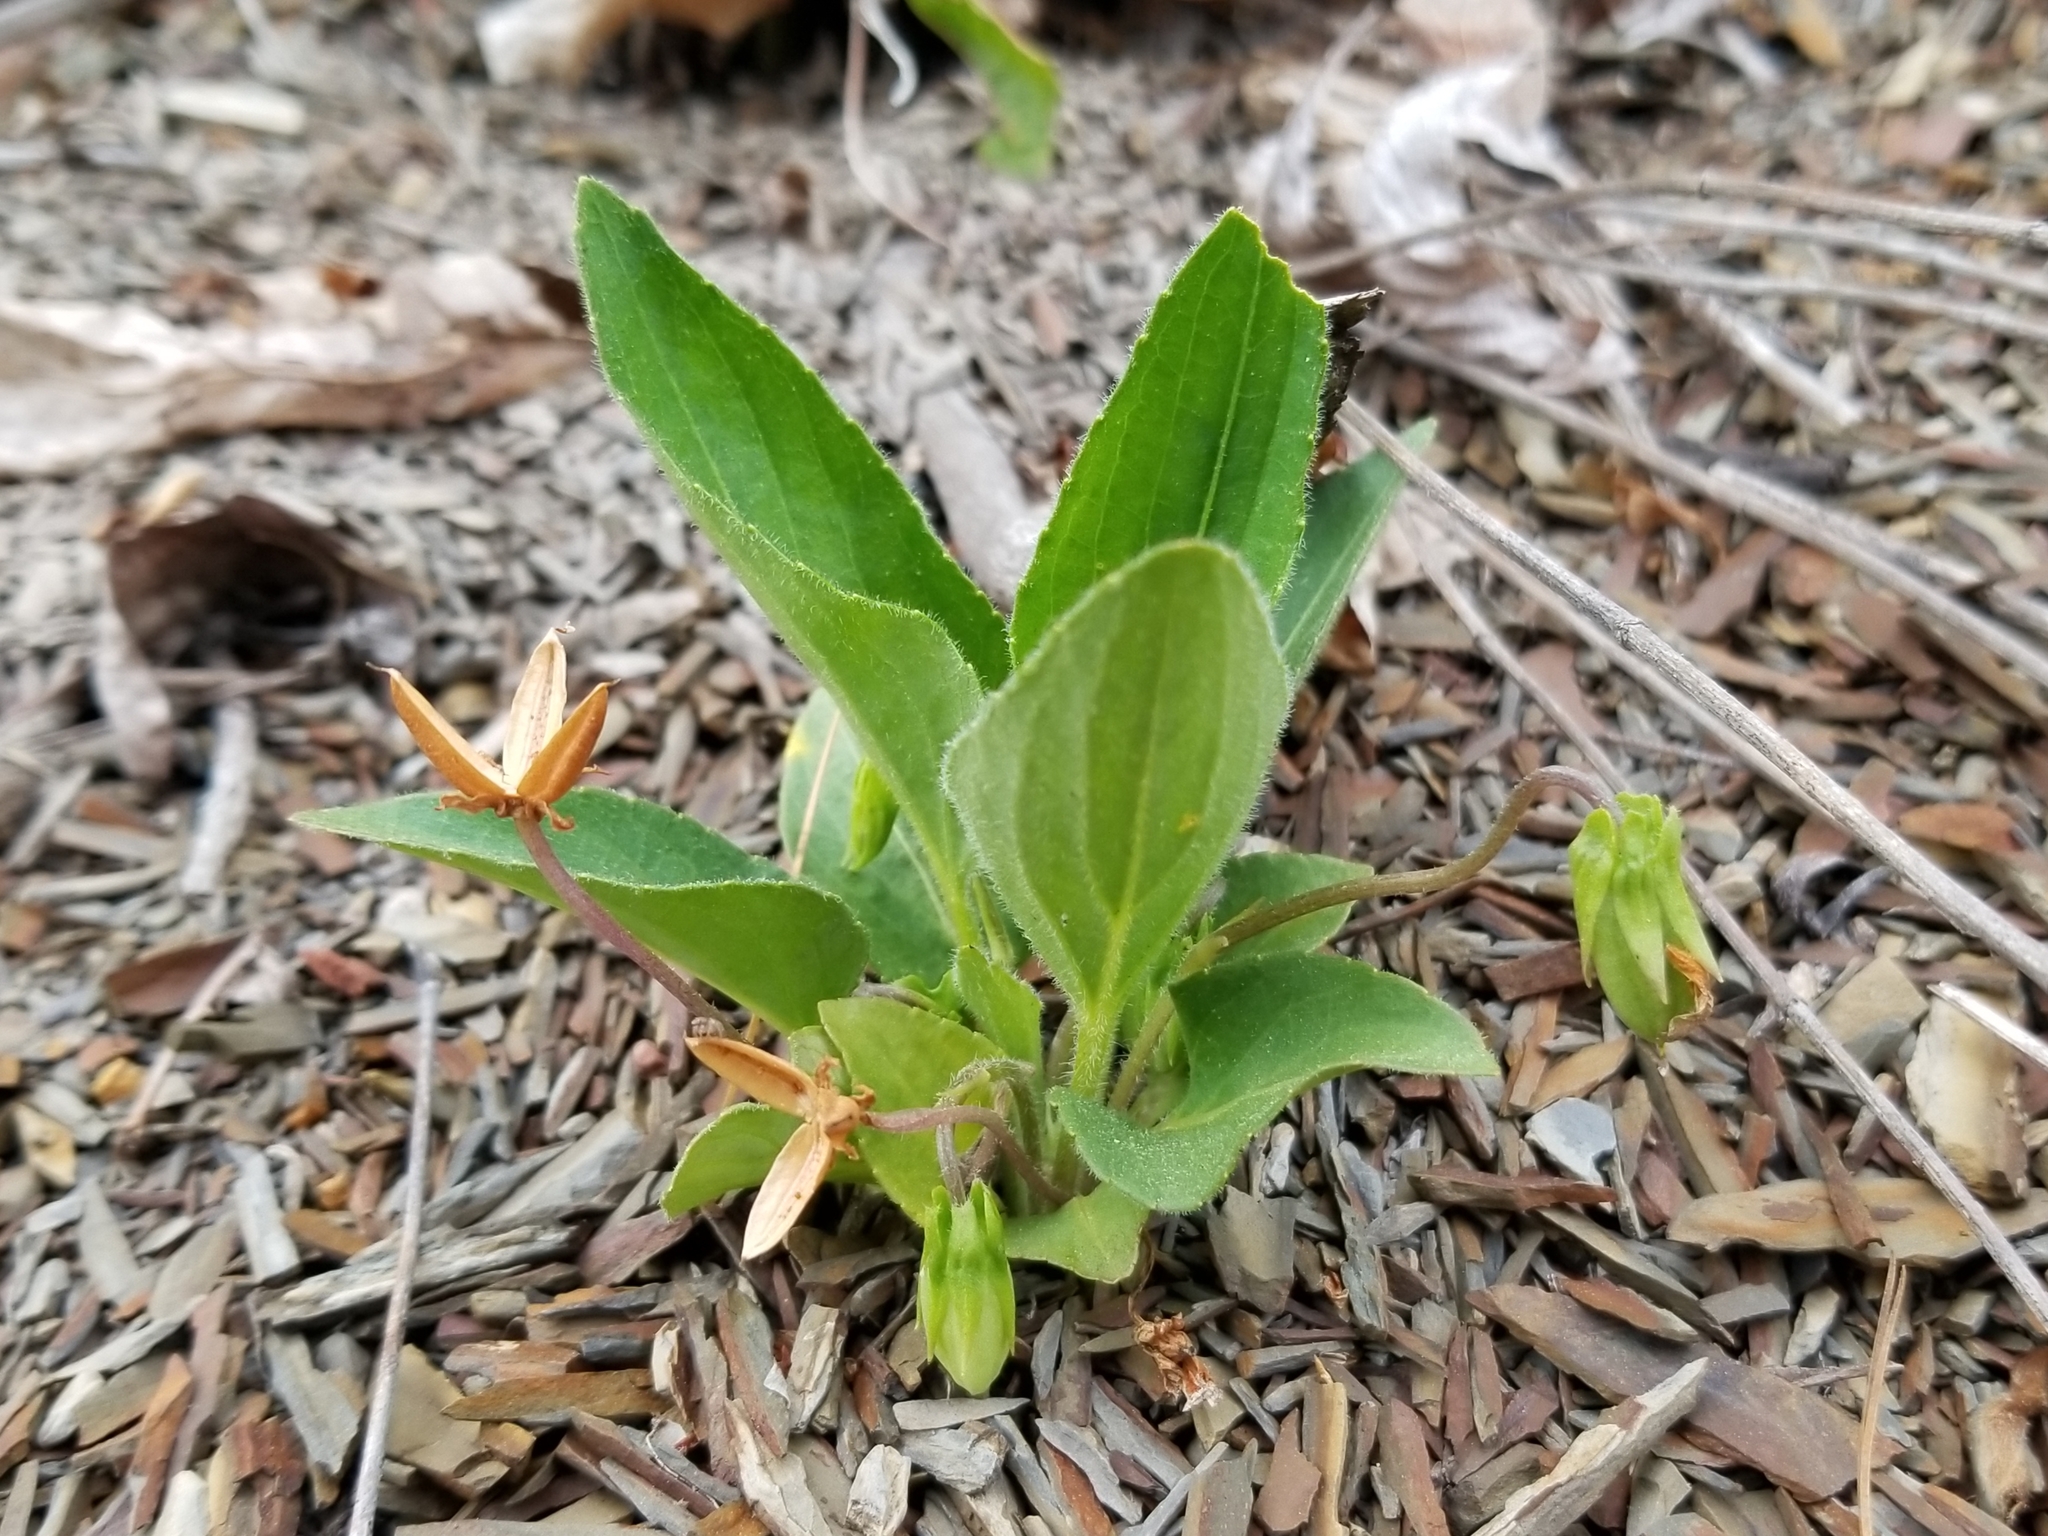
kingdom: Plantae
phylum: Tracheophyta
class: Magnoliopsida
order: Malpighiales
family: Violaceae
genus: Viola
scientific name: Viola fimbriatula
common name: Sand violet
